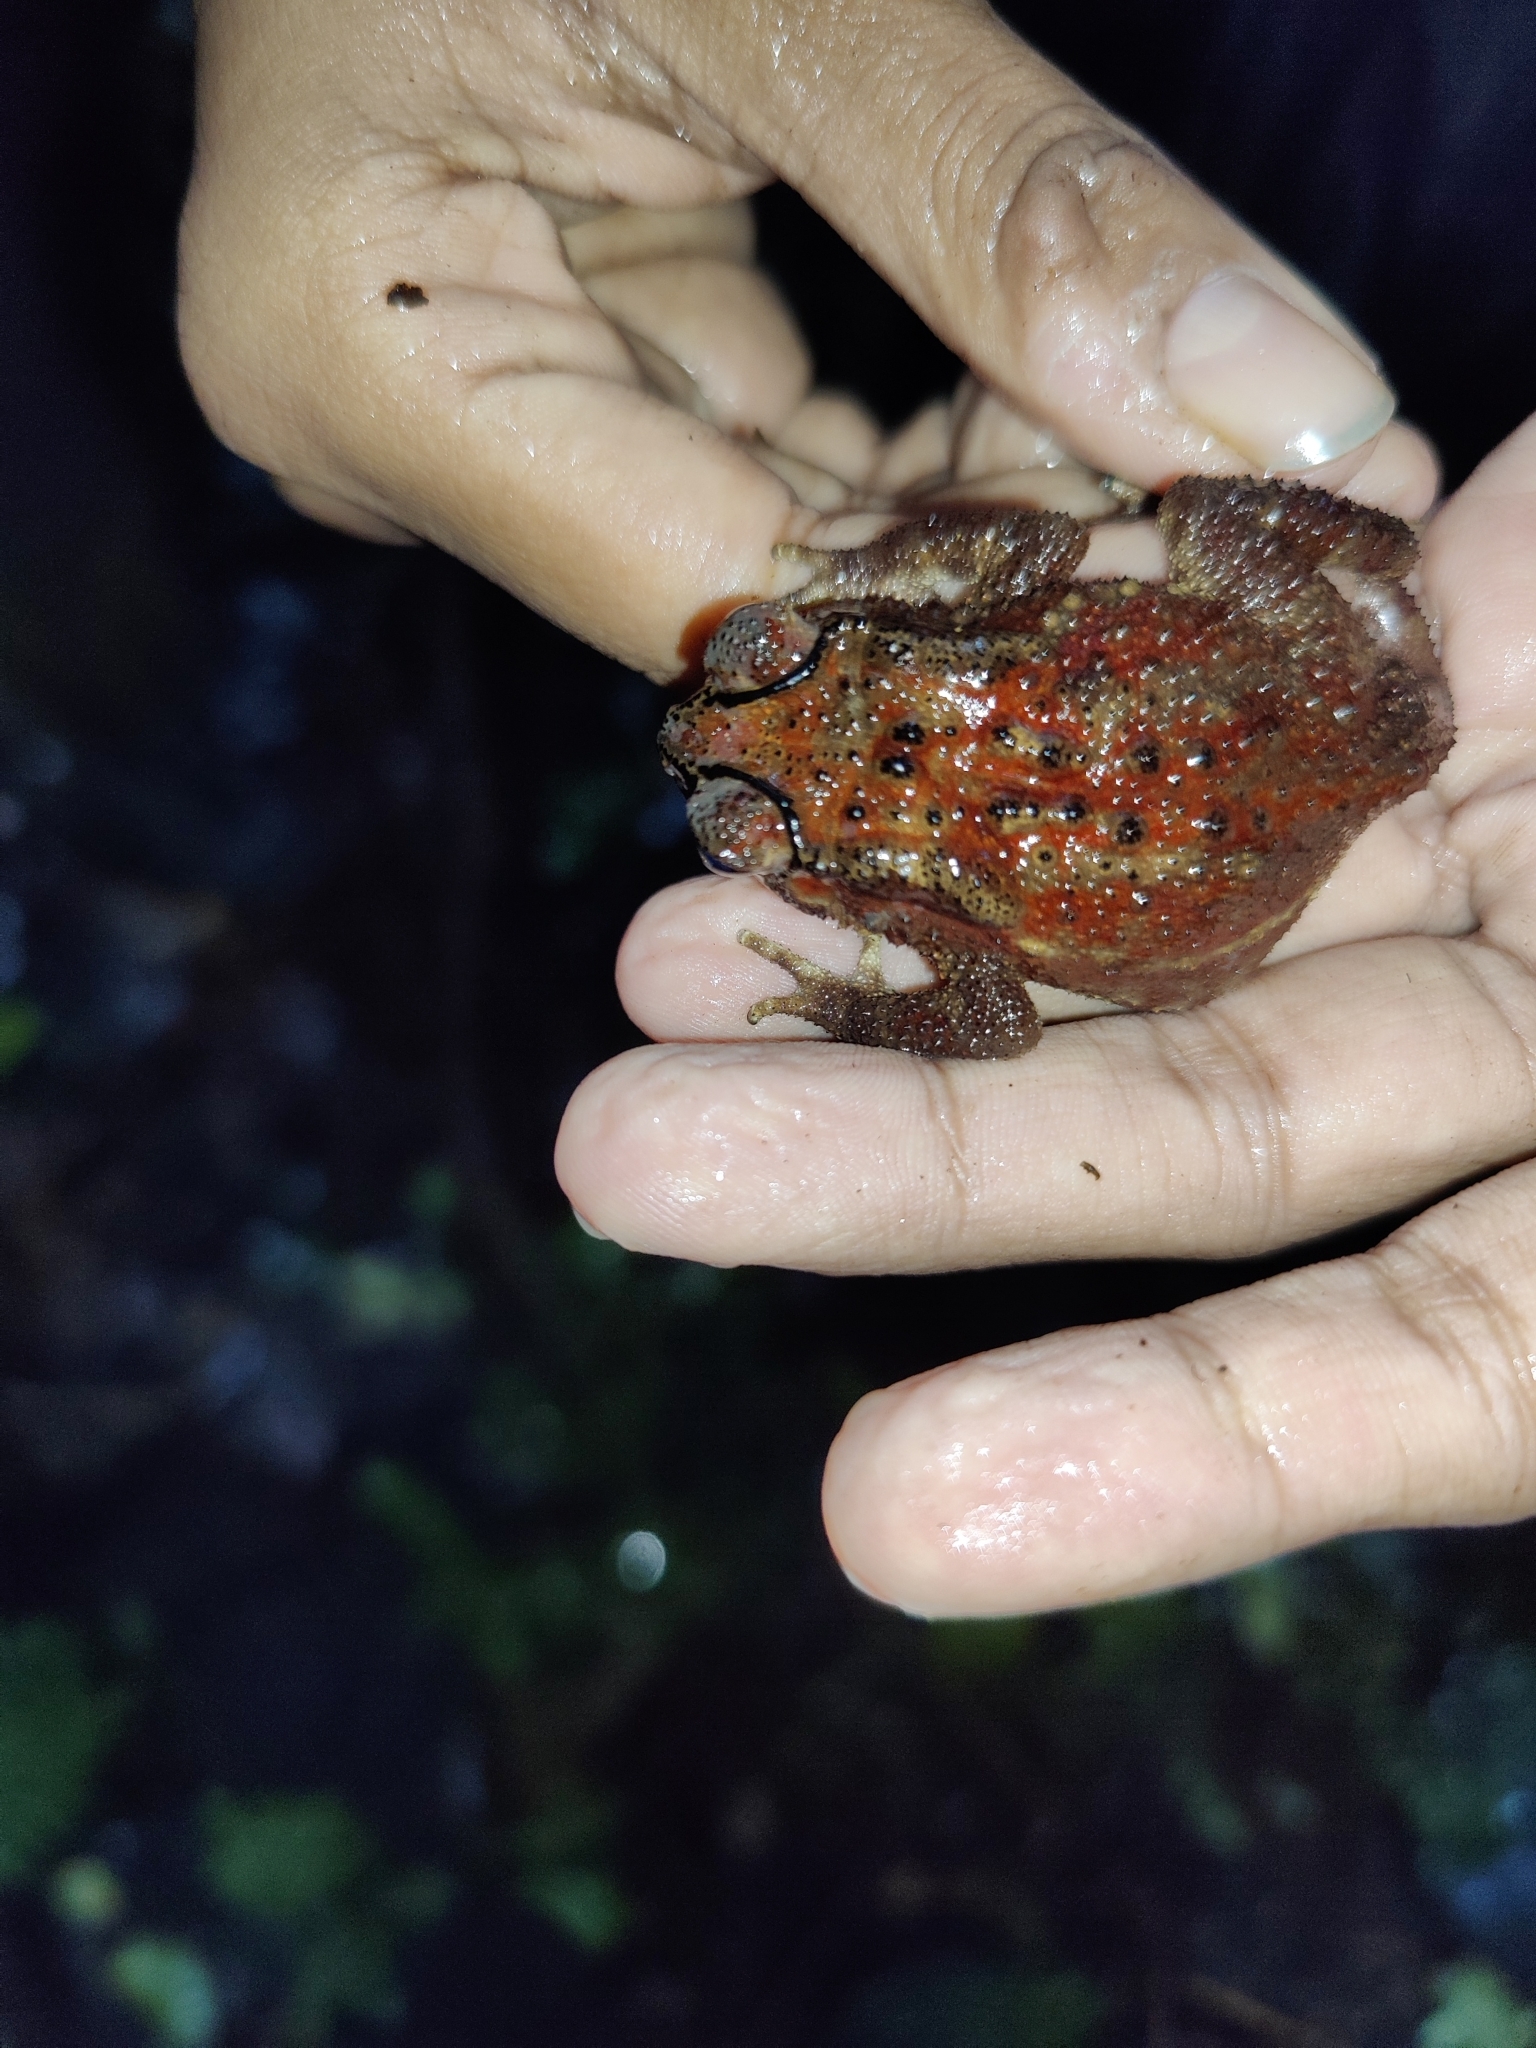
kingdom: Animalia
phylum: Chordata
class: Amphibia
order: Anura
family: Bufonidae
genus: Duttaphrynus
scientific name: Duttaphrynus melanostictus
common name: Common sunda toad
